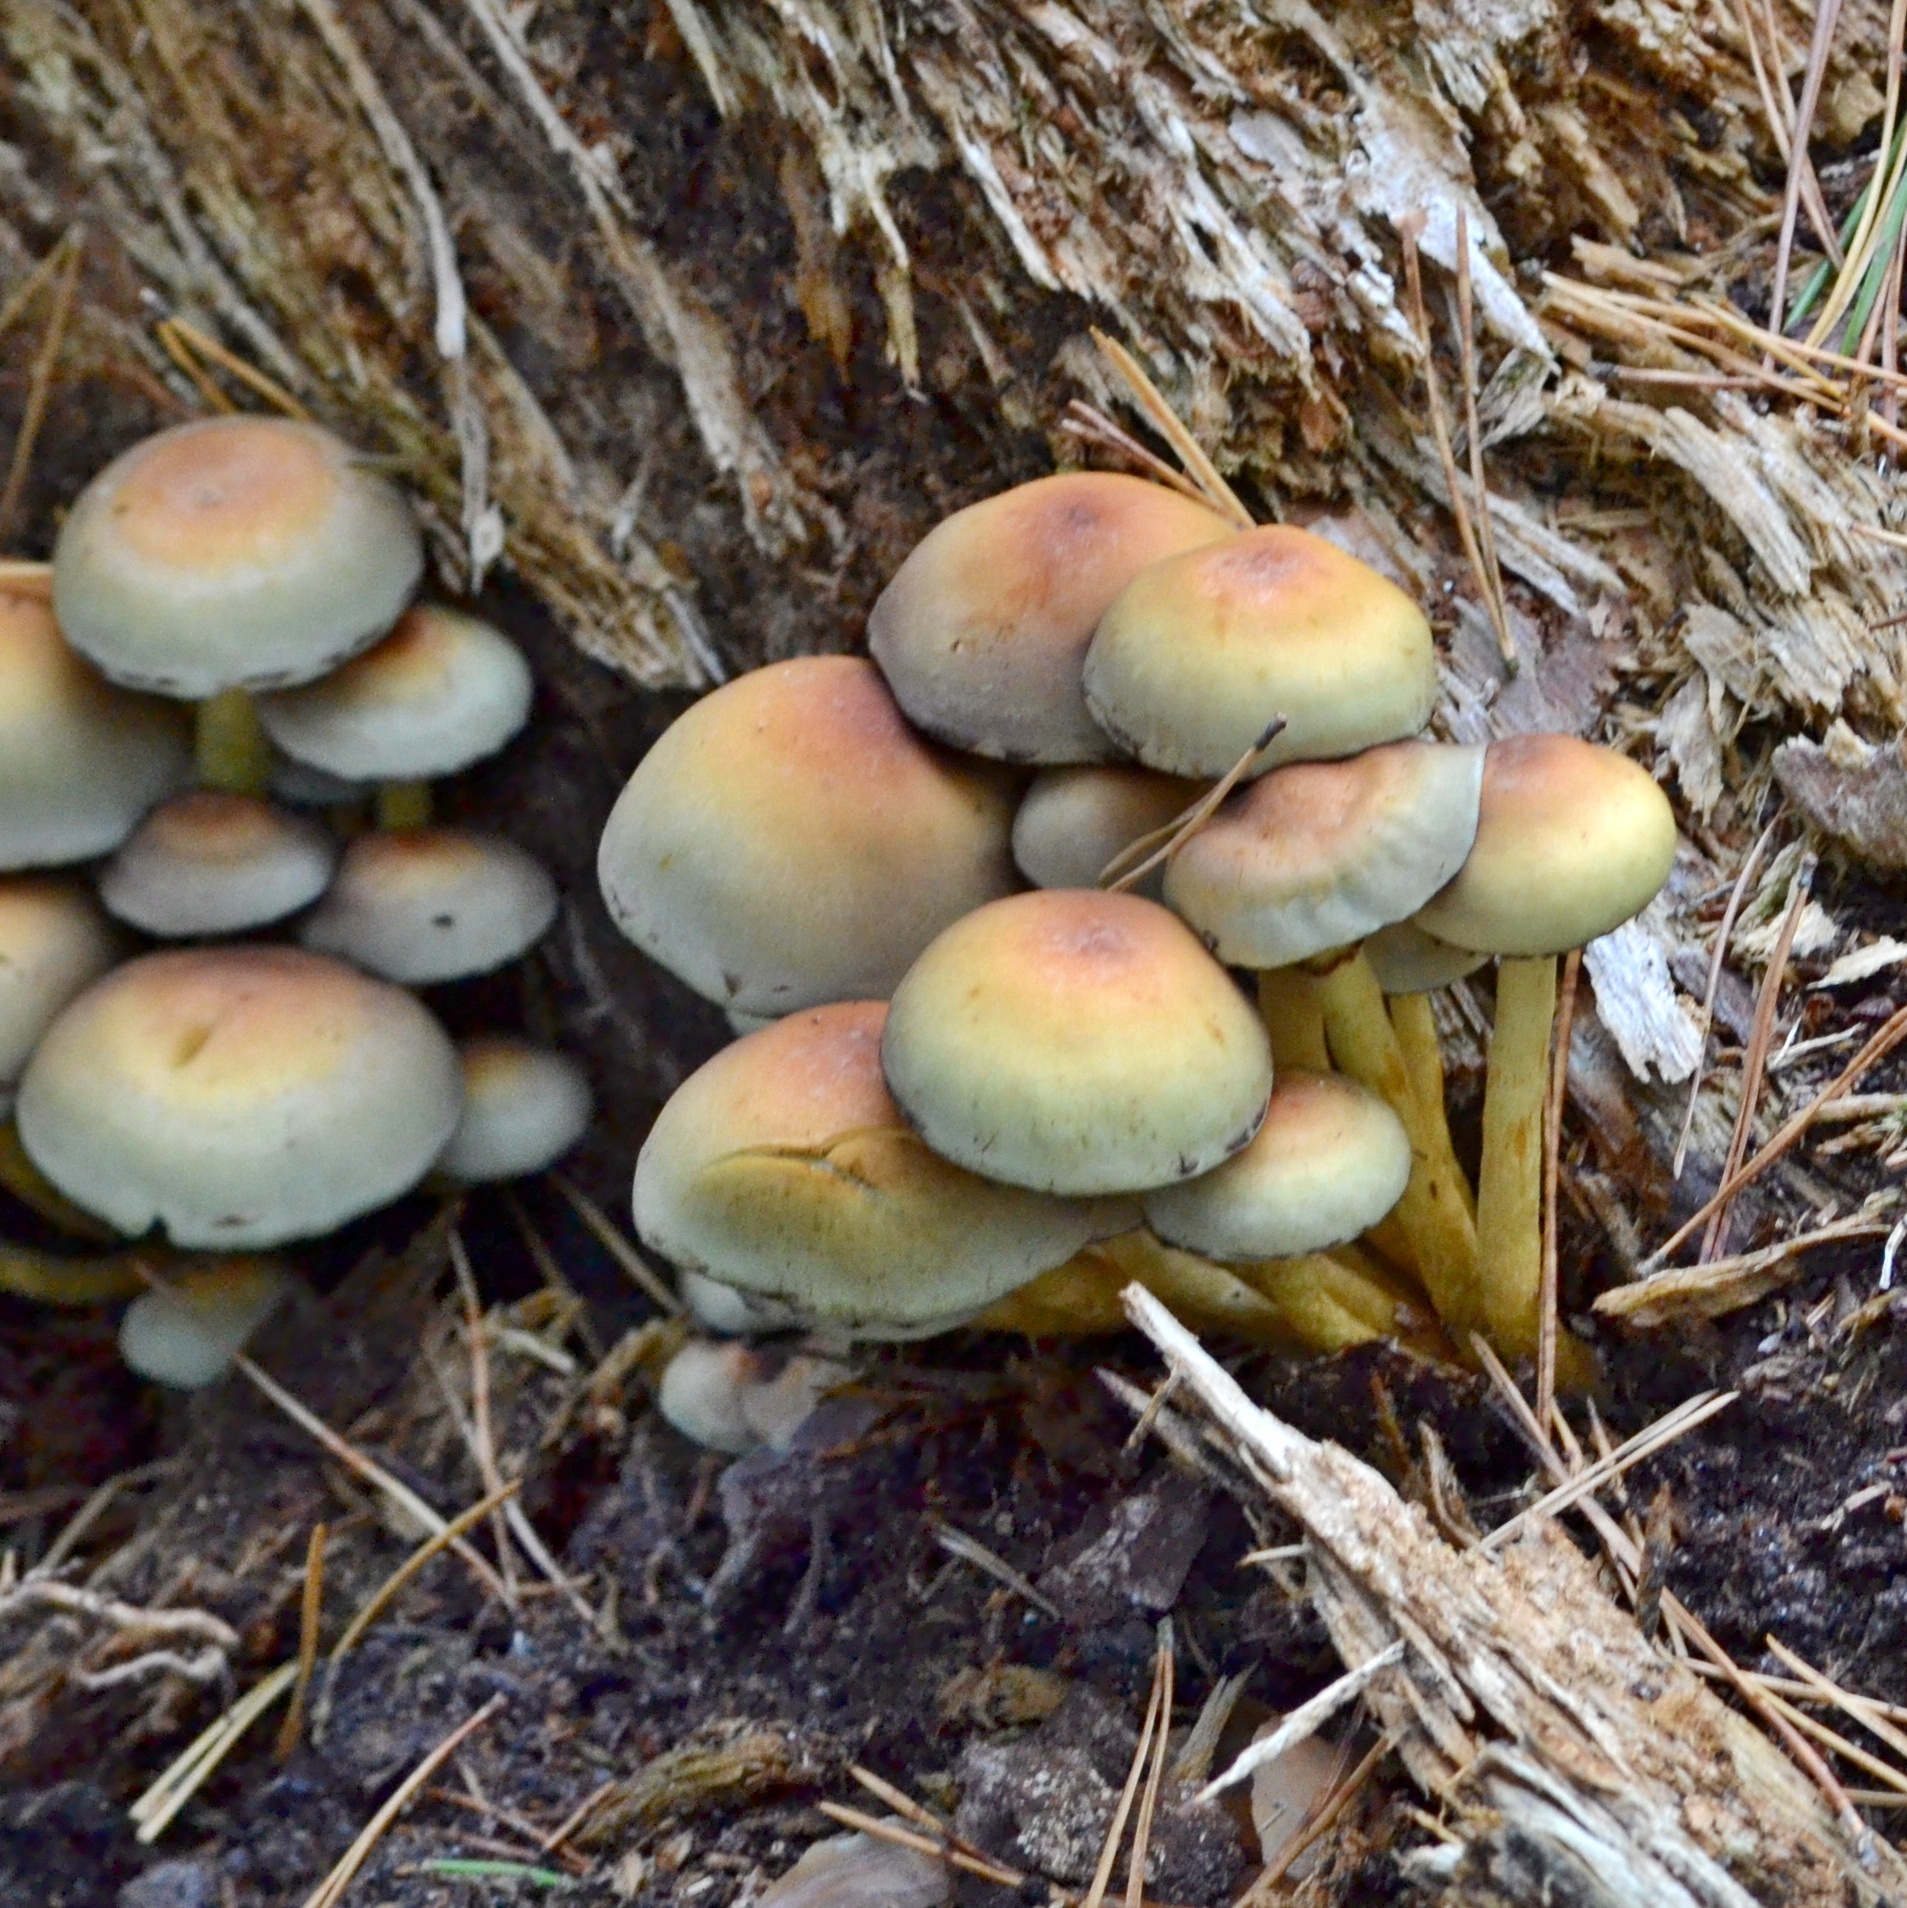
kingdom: Fungi
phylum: Basidiomycota
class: Agaricomycetes
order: Agaricales
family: Strophariaceae
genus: Hypholoma
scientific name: Hypholoma fasciculare
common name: Sulphur tuft
